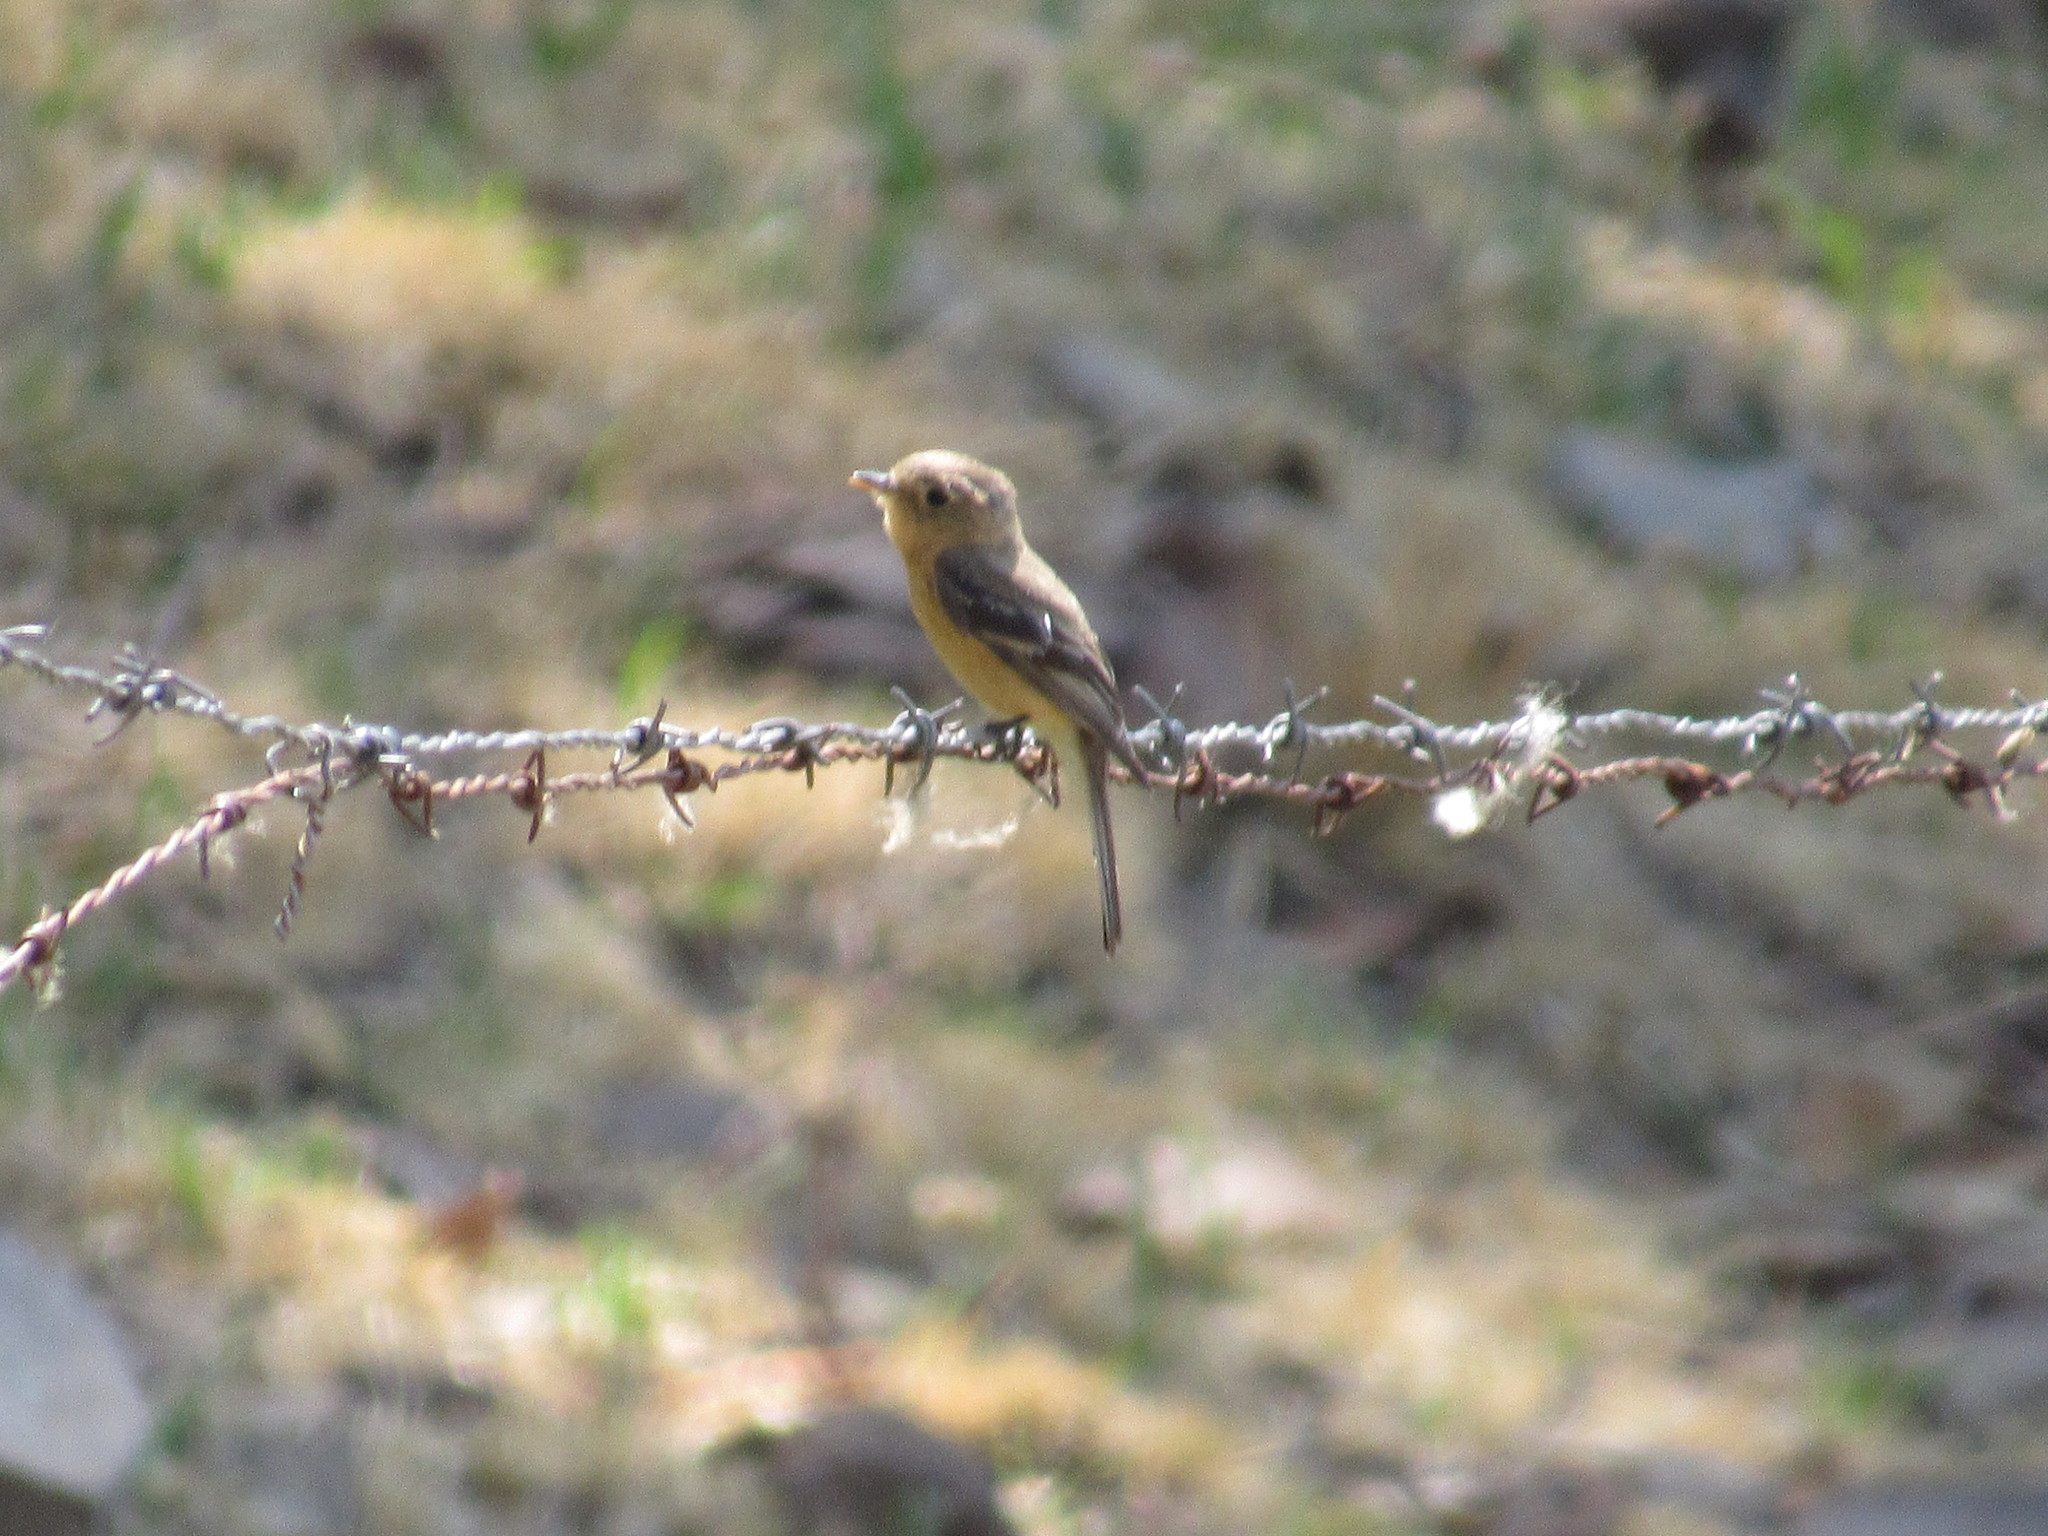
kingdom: Animalia
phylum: Chordata
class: Aves
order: Passeriformes
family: Tyrannidae
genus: Empidonax
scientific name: Empidonax fulvifrons
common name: Buff-breasted flycatcher
